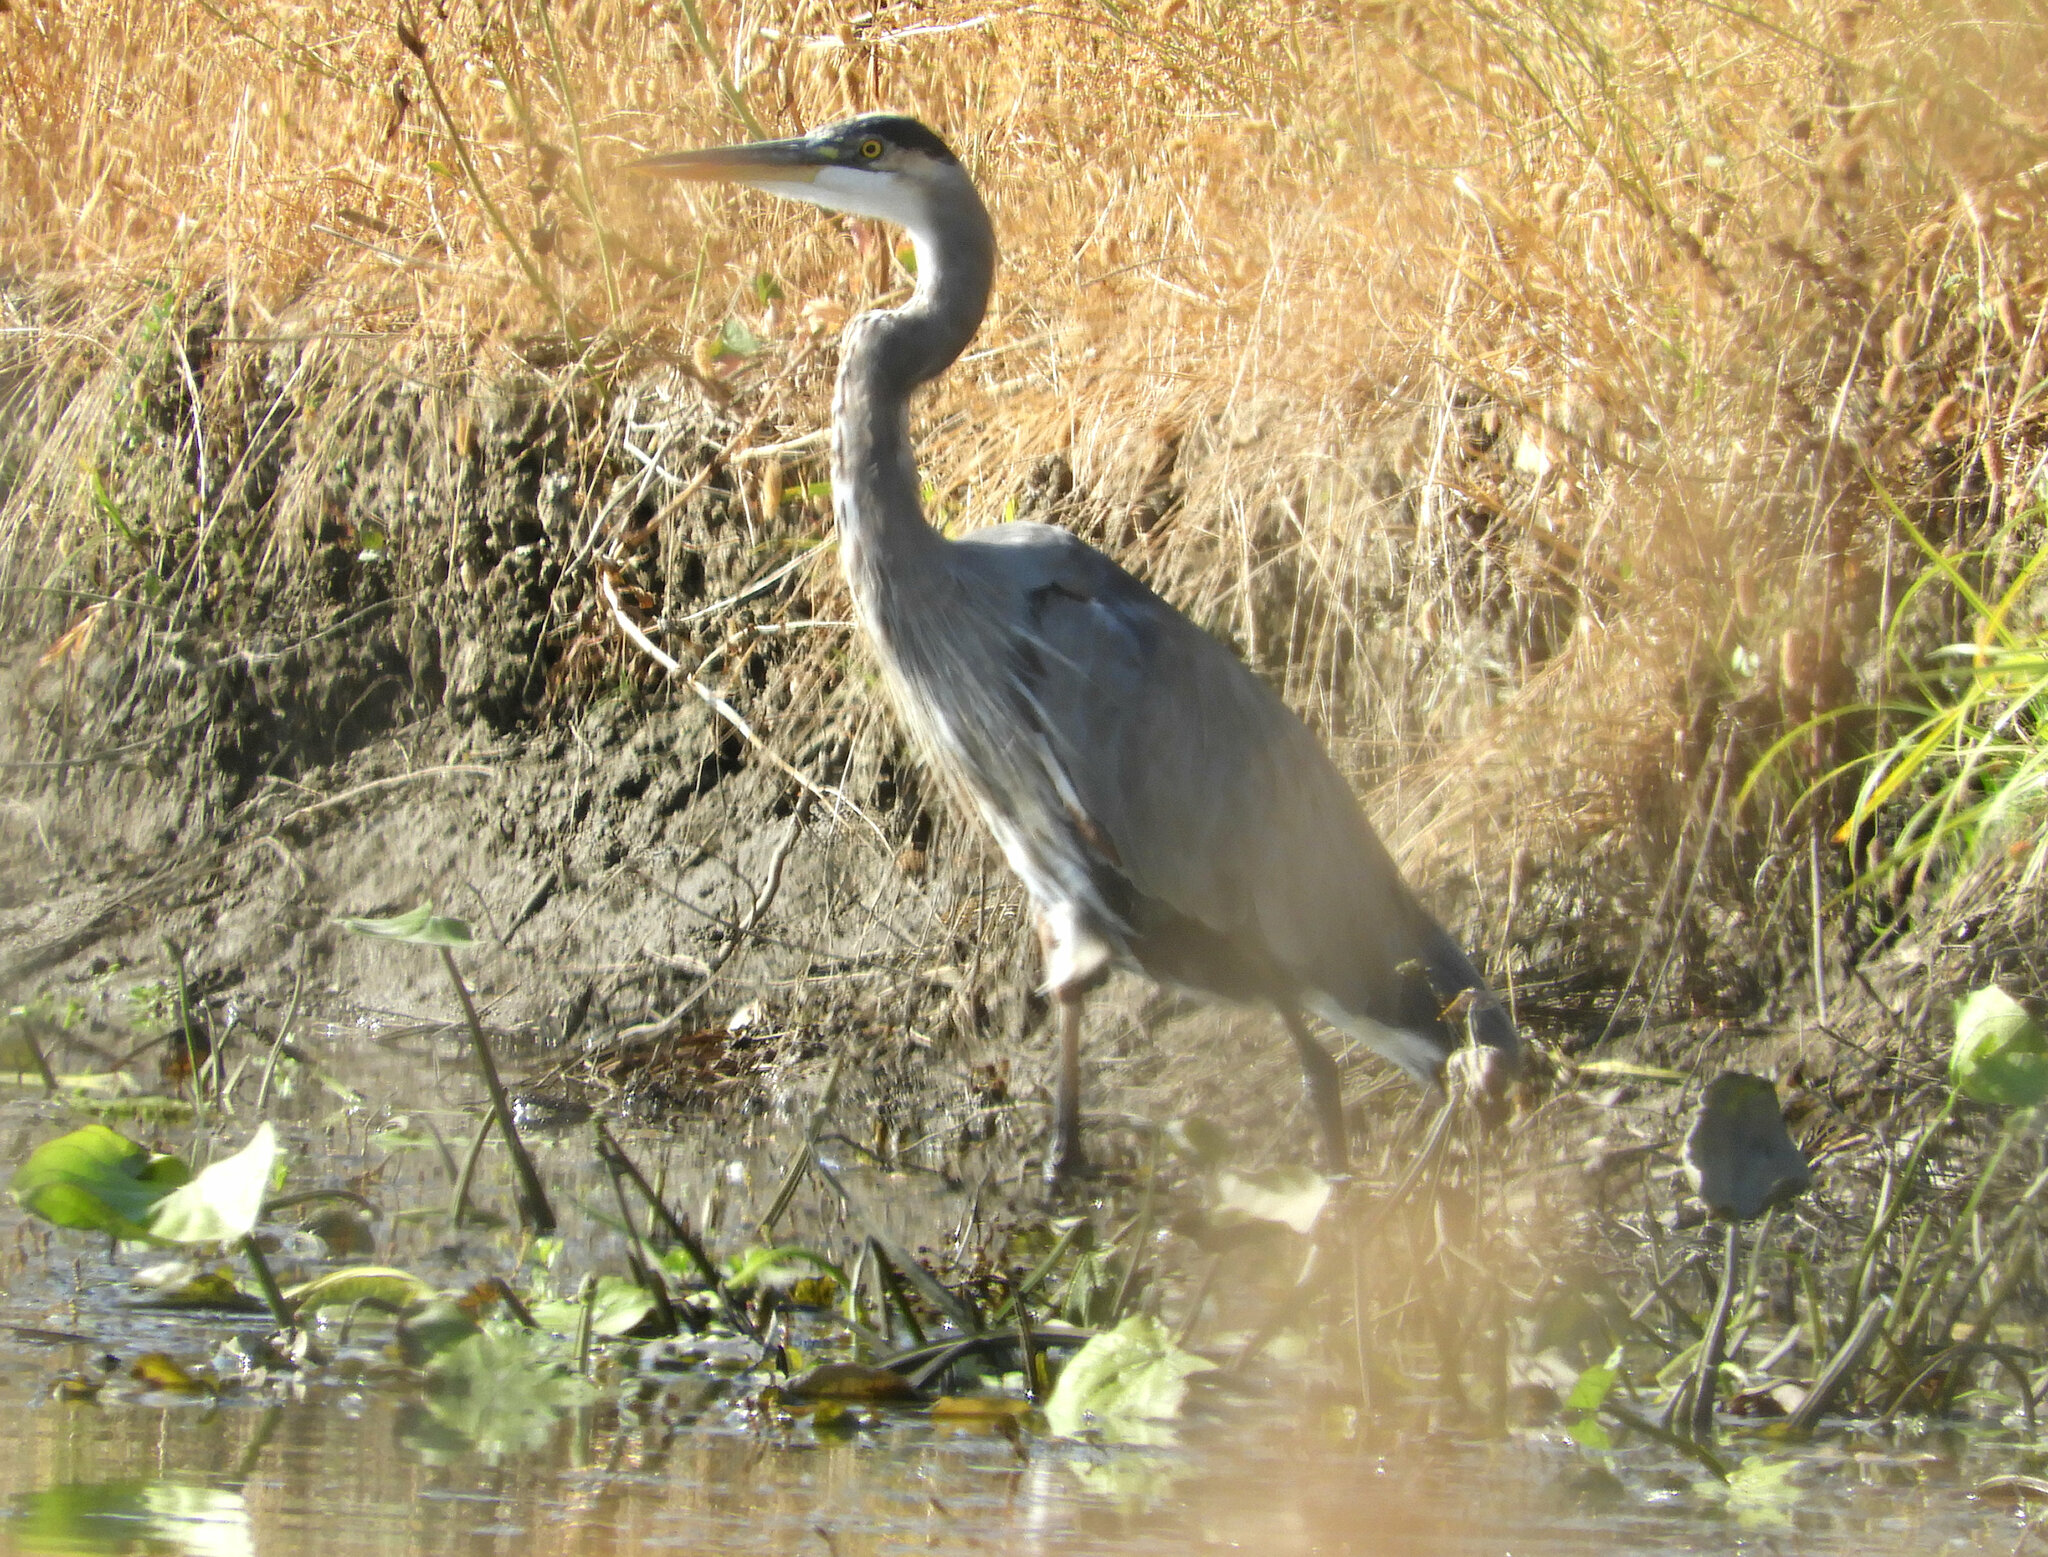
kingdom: Animalia
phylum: Chordata
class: Aves
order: Pelecaniformes
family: Ardeidae
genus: Ardea
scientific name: Ardea herodias
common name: Great blue heron
